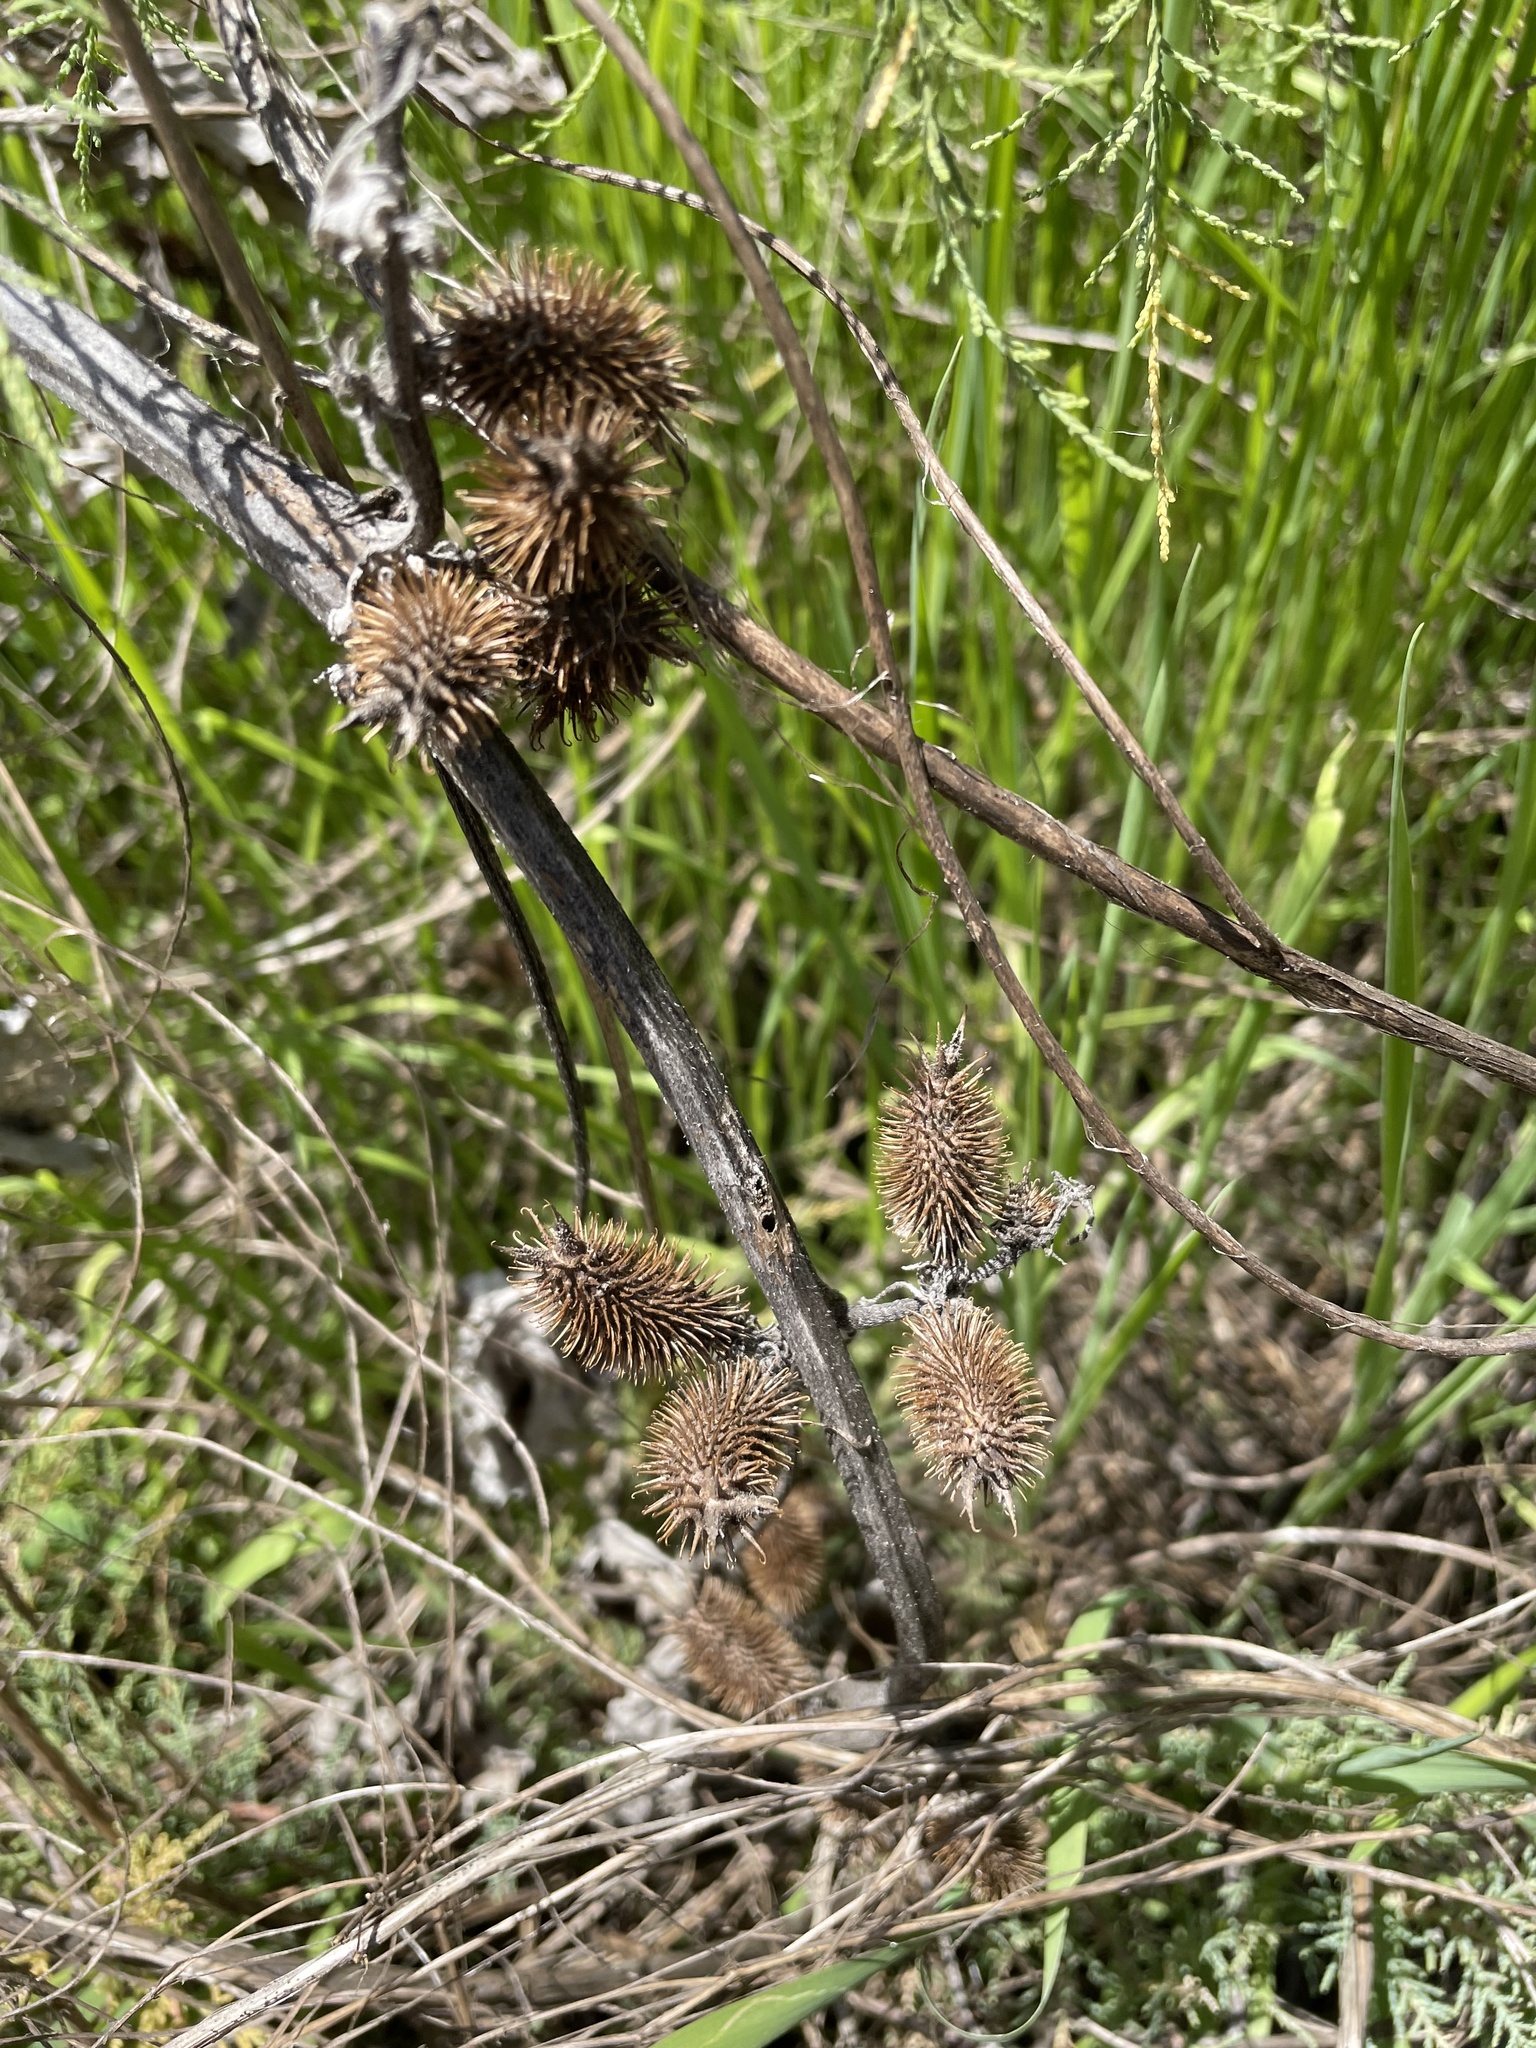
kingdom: Plantae
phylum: Tracheophyta
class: Magnoliopsida
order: Asterales
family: Asteraceae
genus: Xanthium
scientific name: Xanthium strumarium
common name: Rough cocklebur
